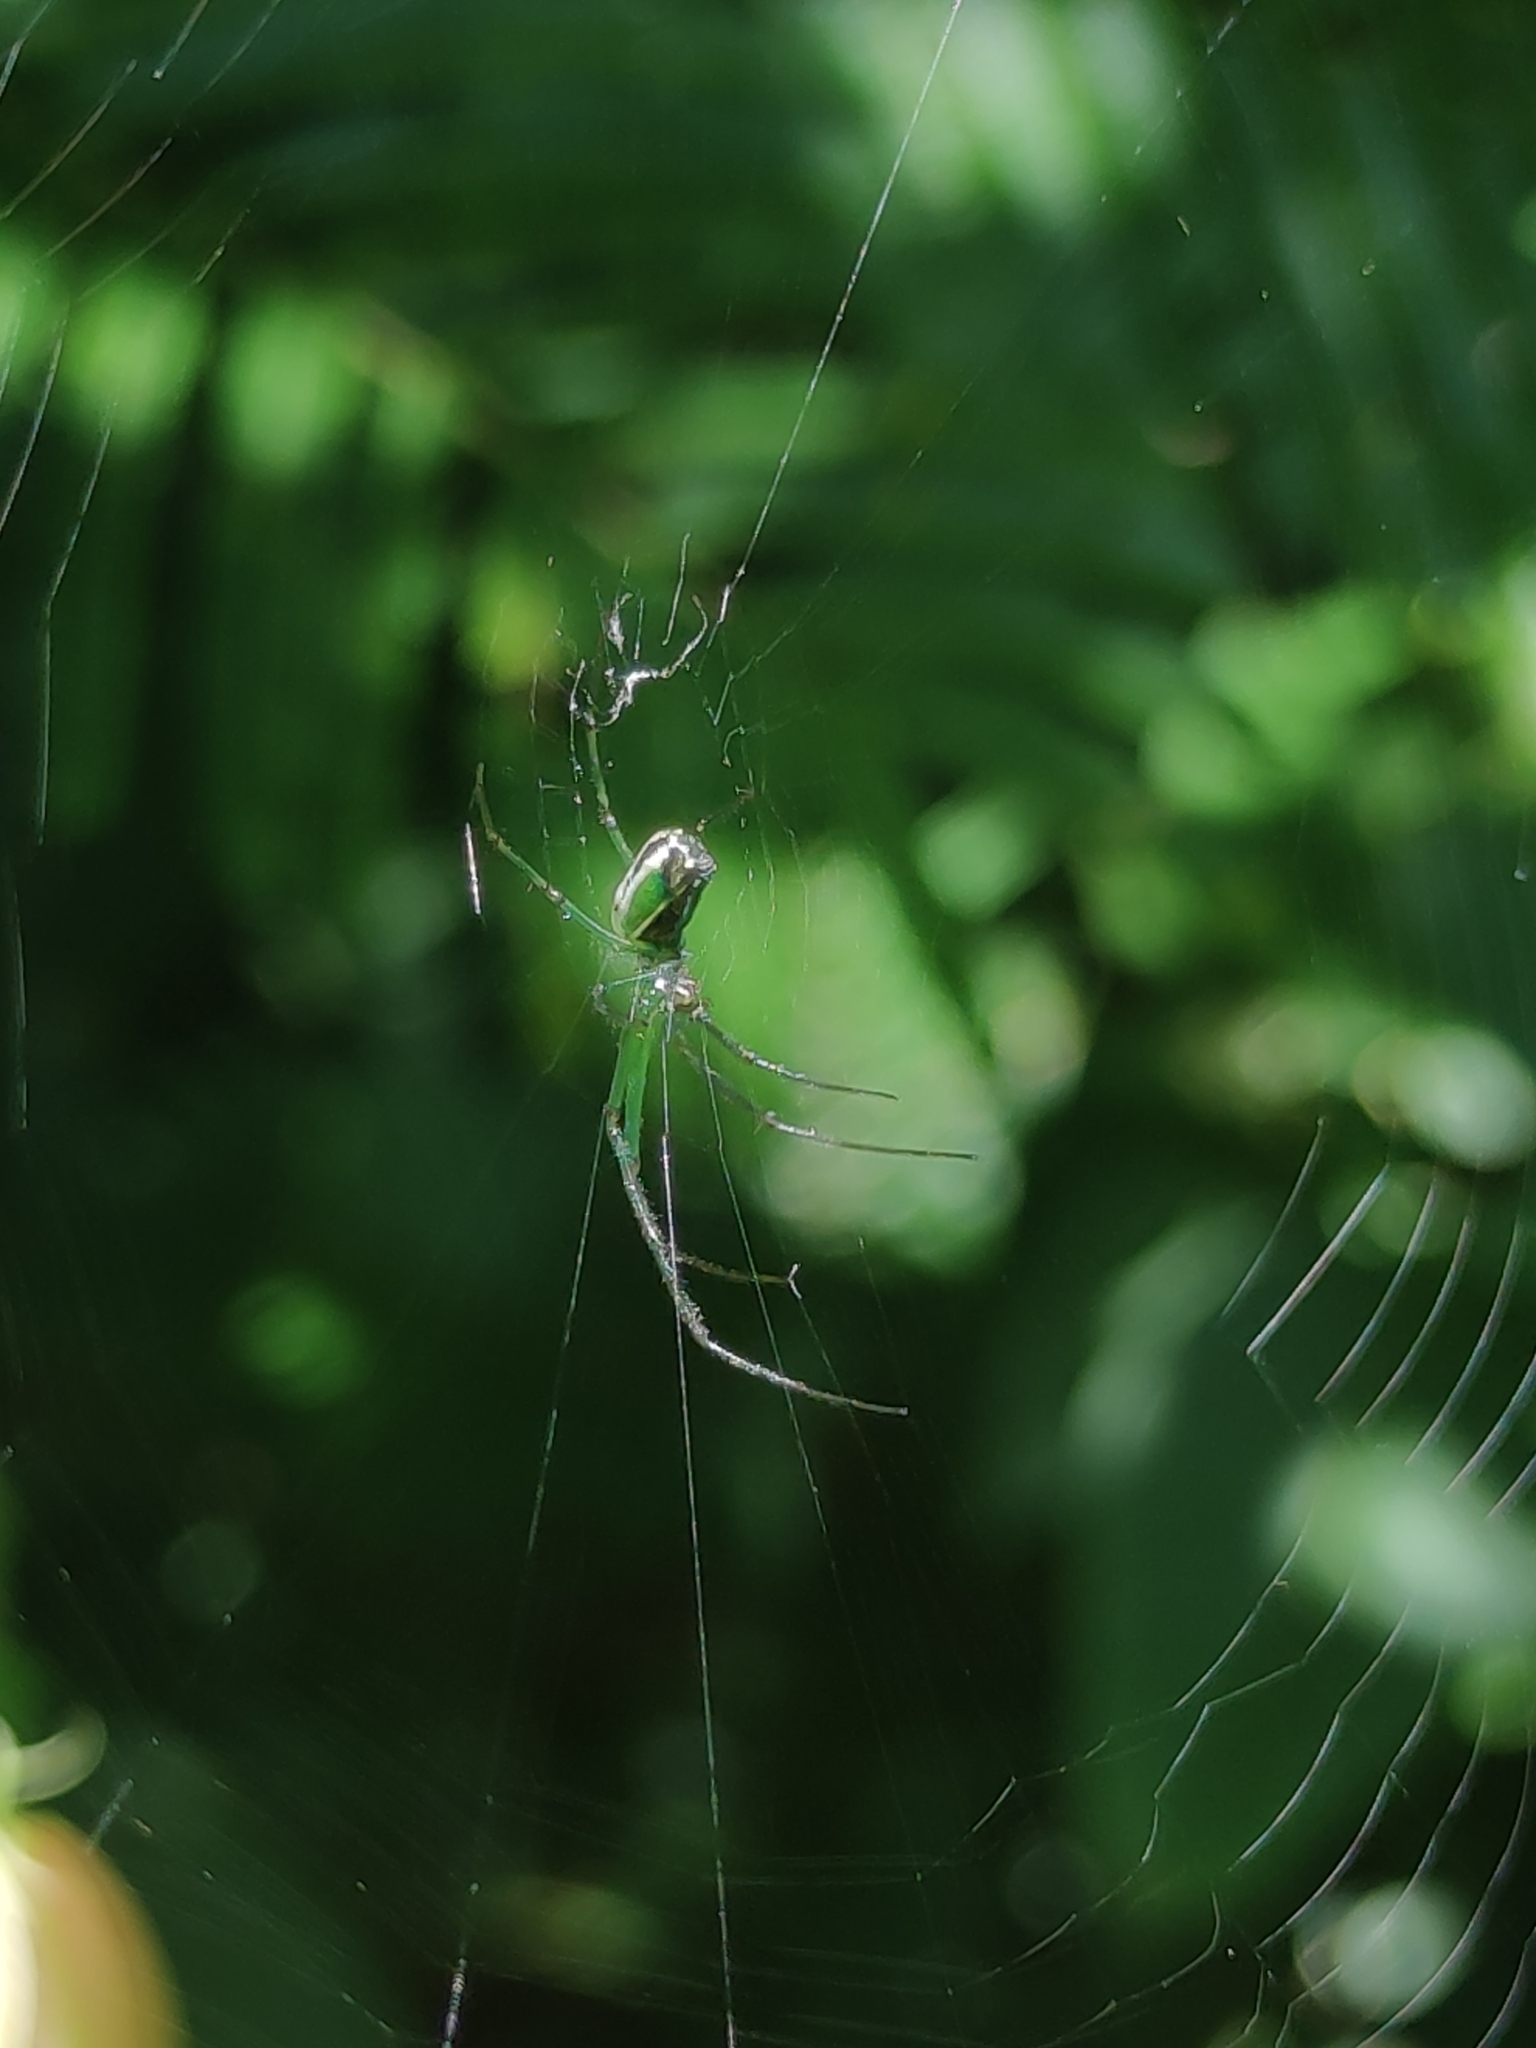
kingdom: Animalia
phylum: Arthropoda
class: Arachnida
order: Araneae
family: Tetragnathidae
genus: Leucauge
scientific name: Leucauge auronotum
